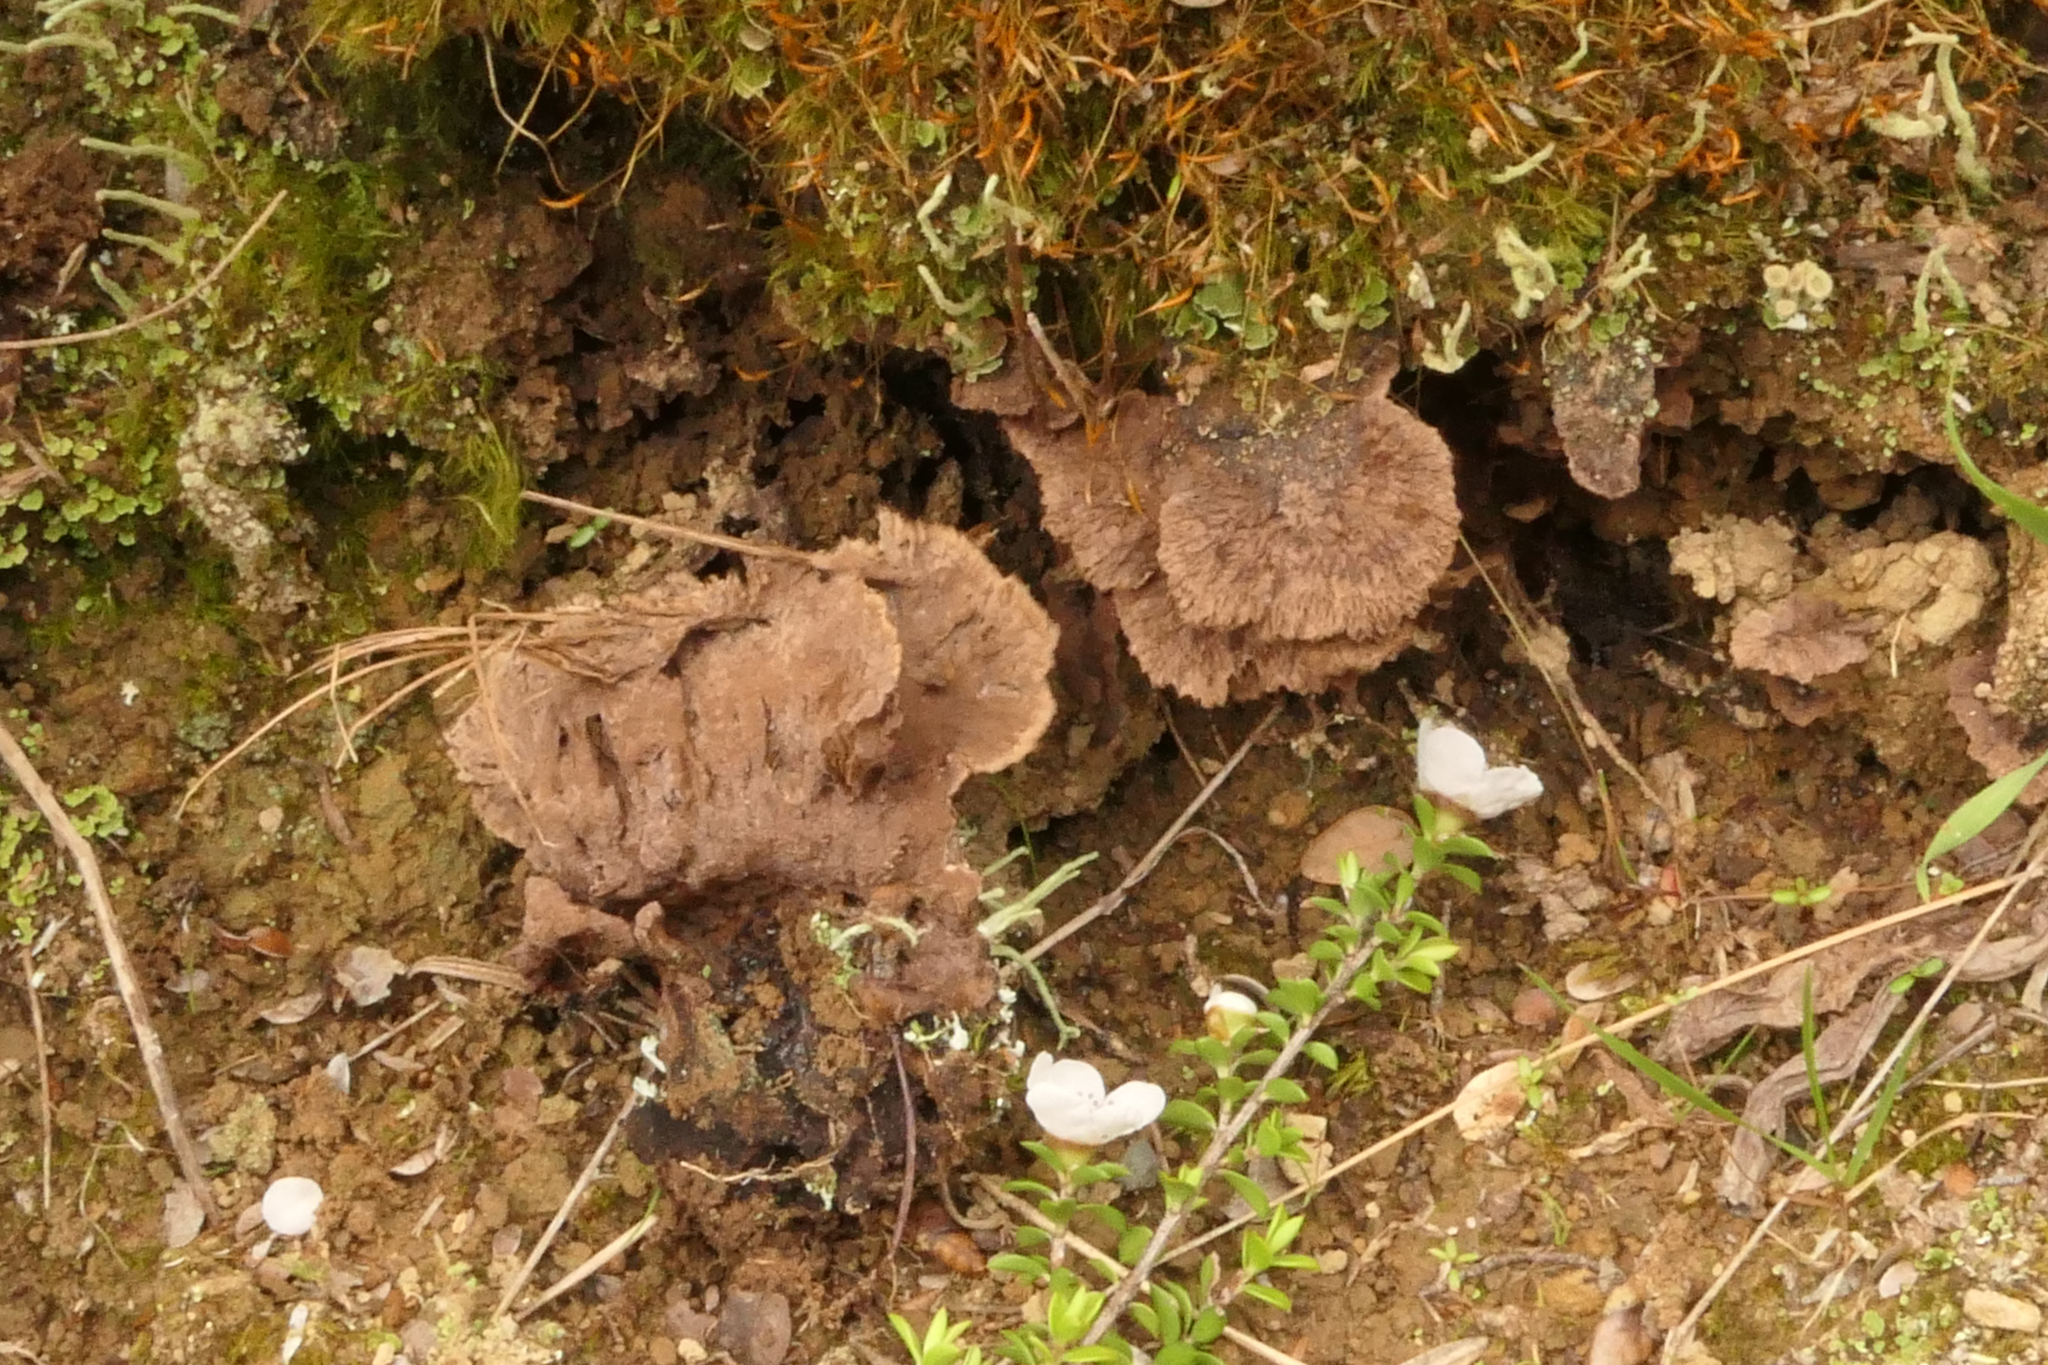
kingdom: Fungi
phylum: Basidiomycota
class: Agaricomycetes
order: Thelephorales
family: Thelephoraceae
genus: Thelephora
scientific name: Thelephora terrestris
